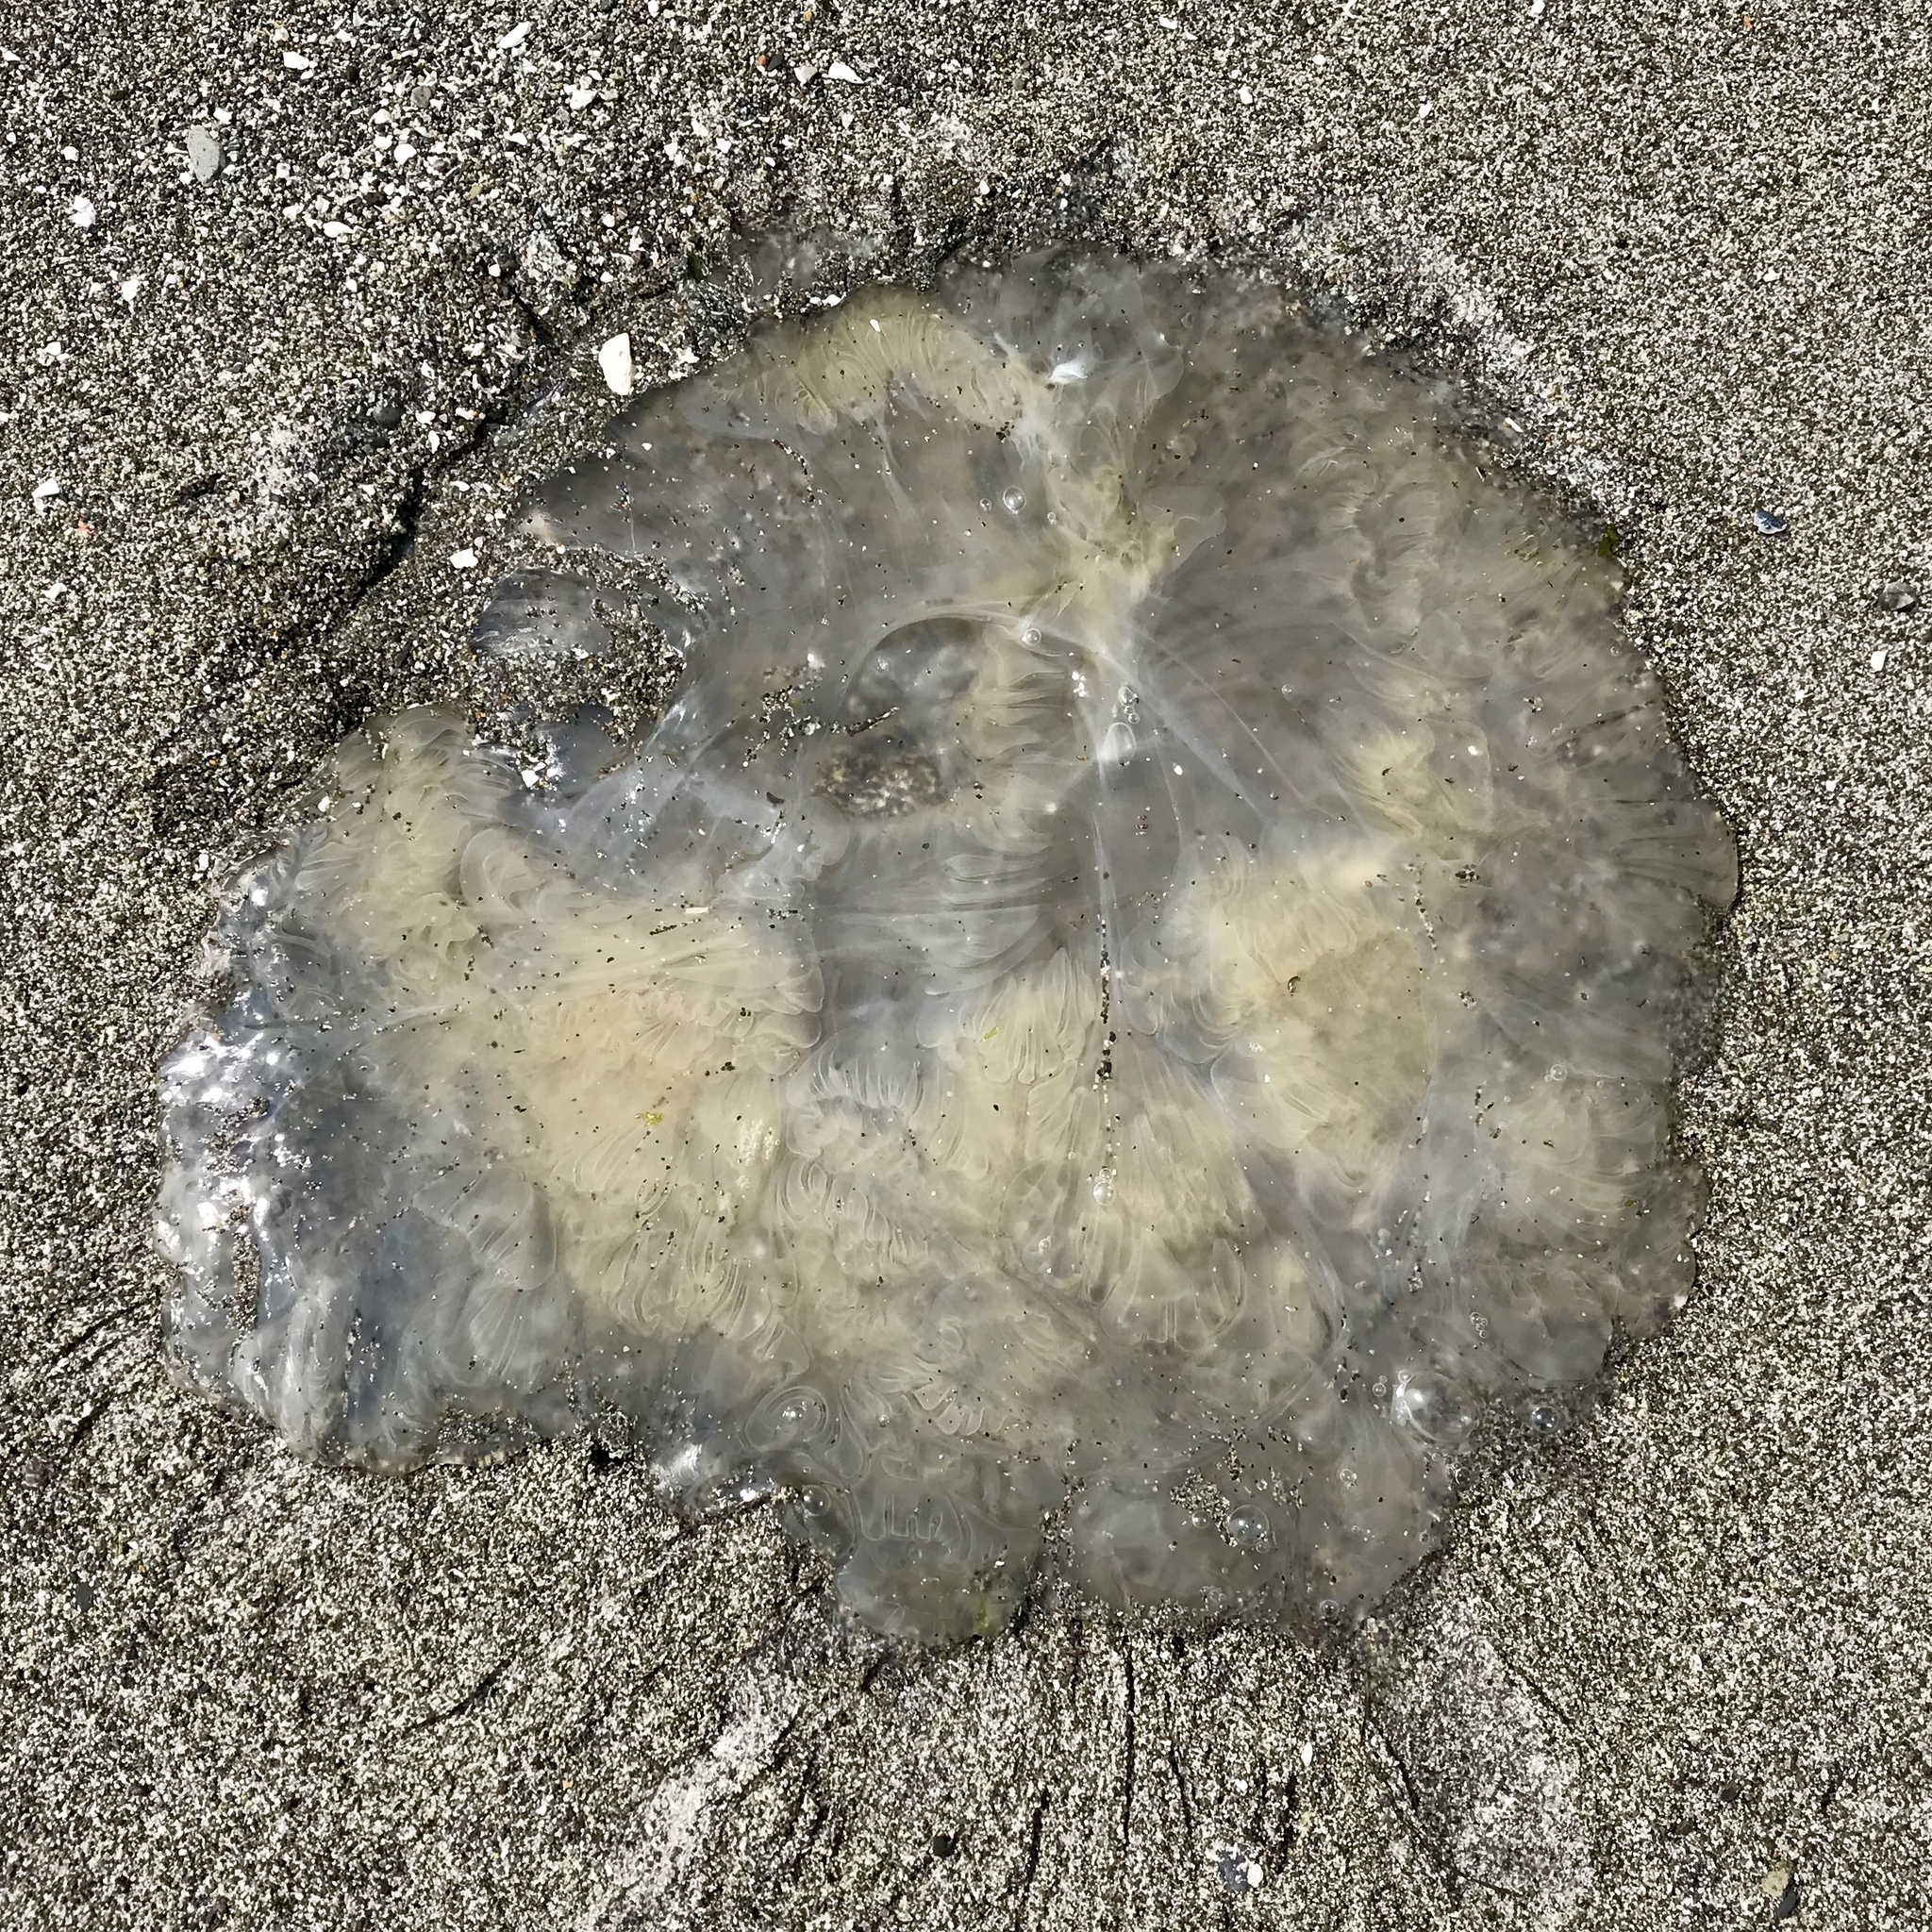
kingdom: Animalia
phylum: Cnidaria
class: Scyphozoa
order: Semaeostomeae
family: Phacellophoridae
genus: Phacellophora
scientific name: Phacellophora camtschatica
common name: Fried-egg jellyfish
